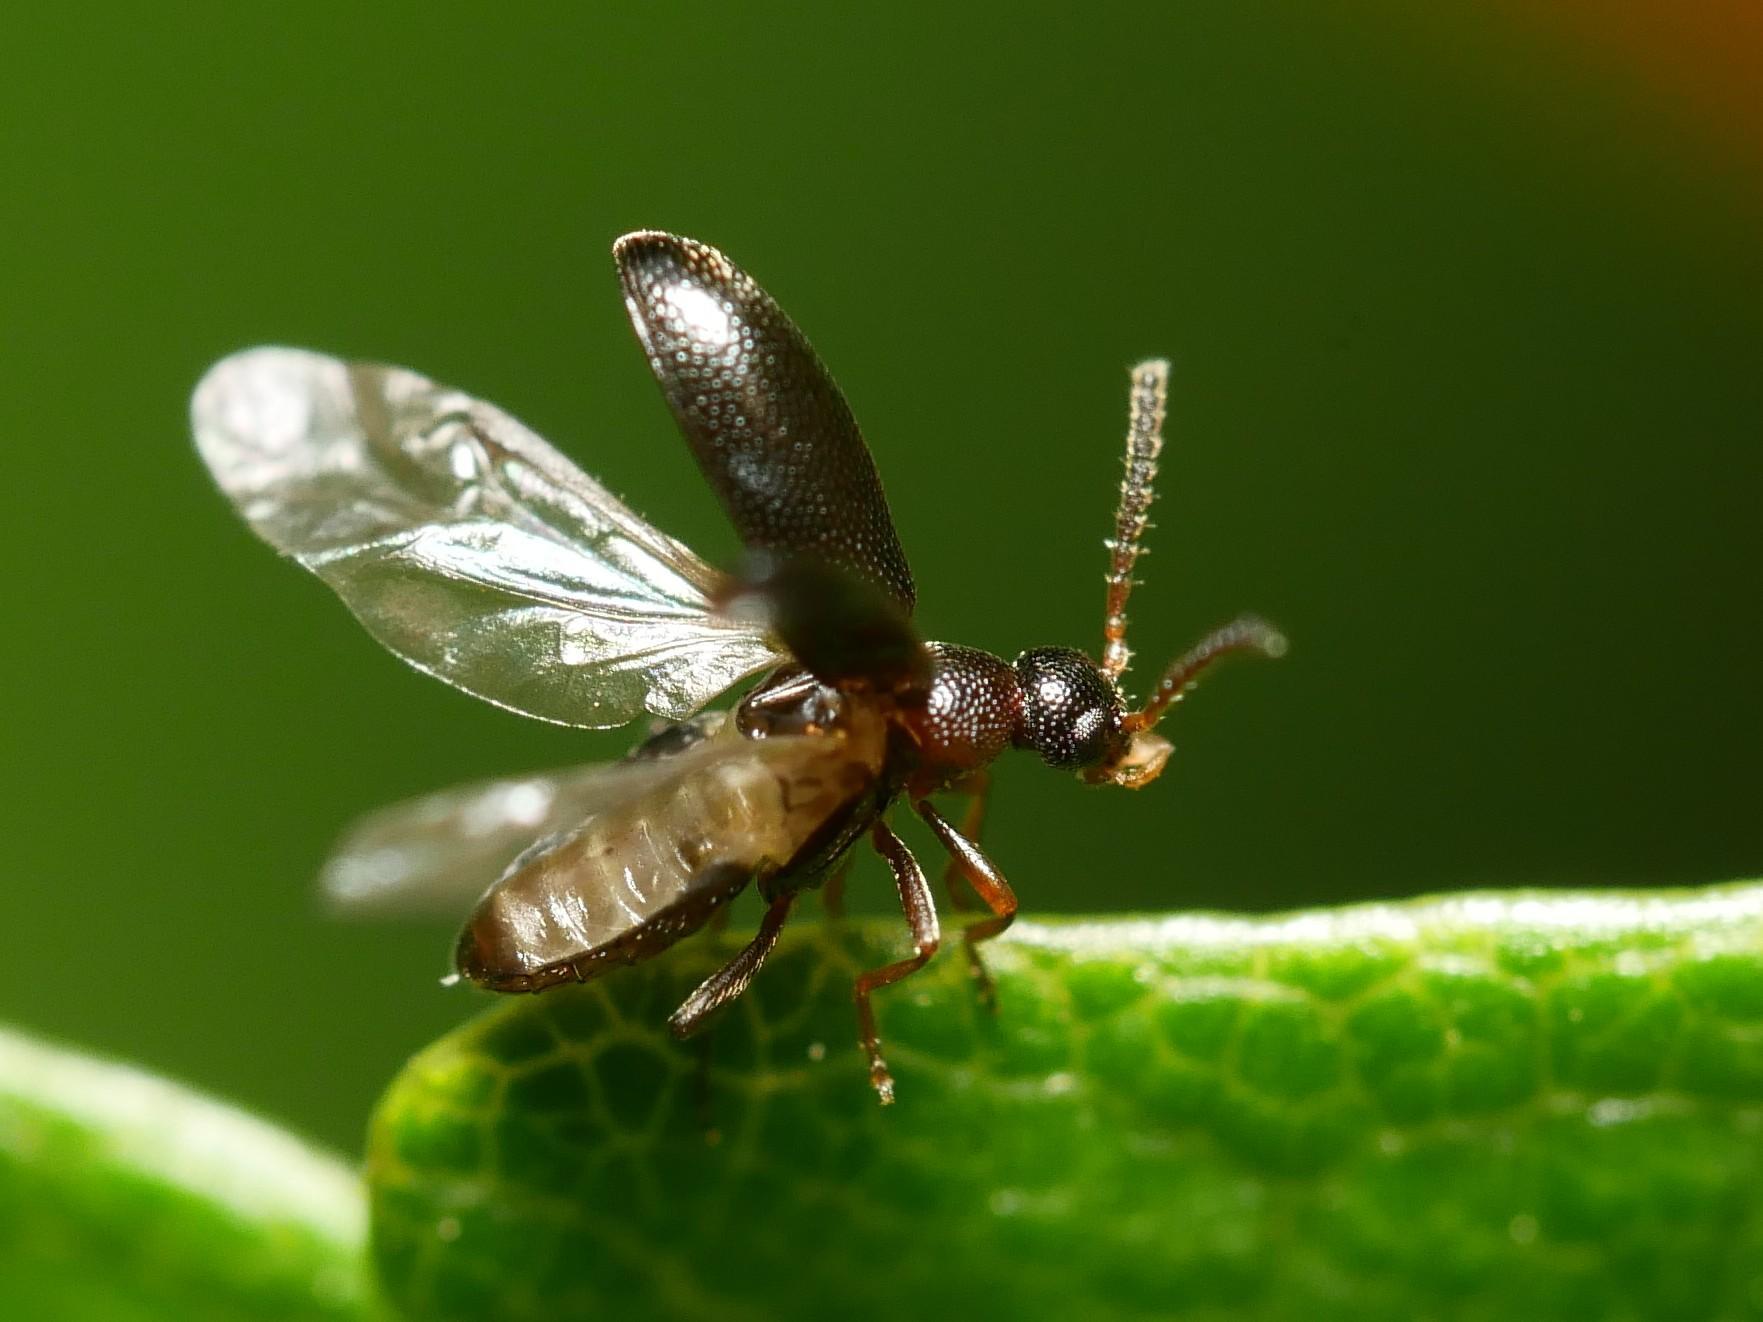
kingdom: Animalia
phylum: Arthropoda
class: Insecta
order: Coleoptera
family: Aderidae
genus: Anidorus
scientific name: Anidorus nigrinus
